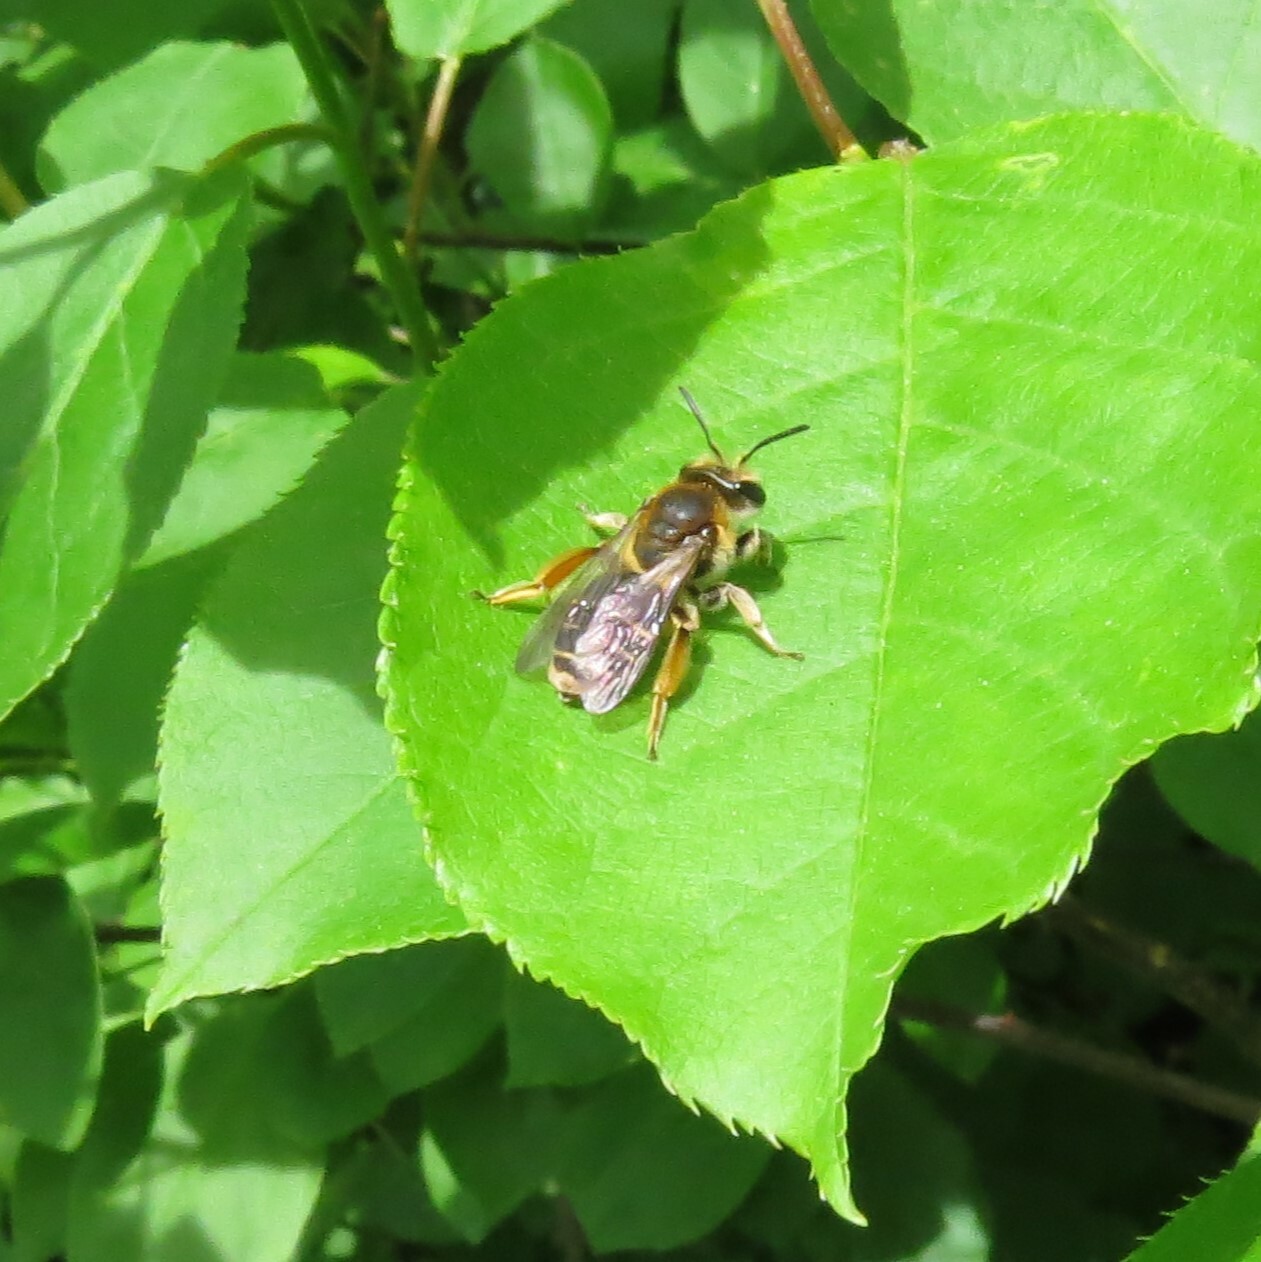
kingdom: Animalia
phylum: Arthropoda
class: Insecta
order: Hymenoptera
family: Andrenidae
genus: Andrena
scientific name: Andrena wilkella
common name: Wilke's mining bee
